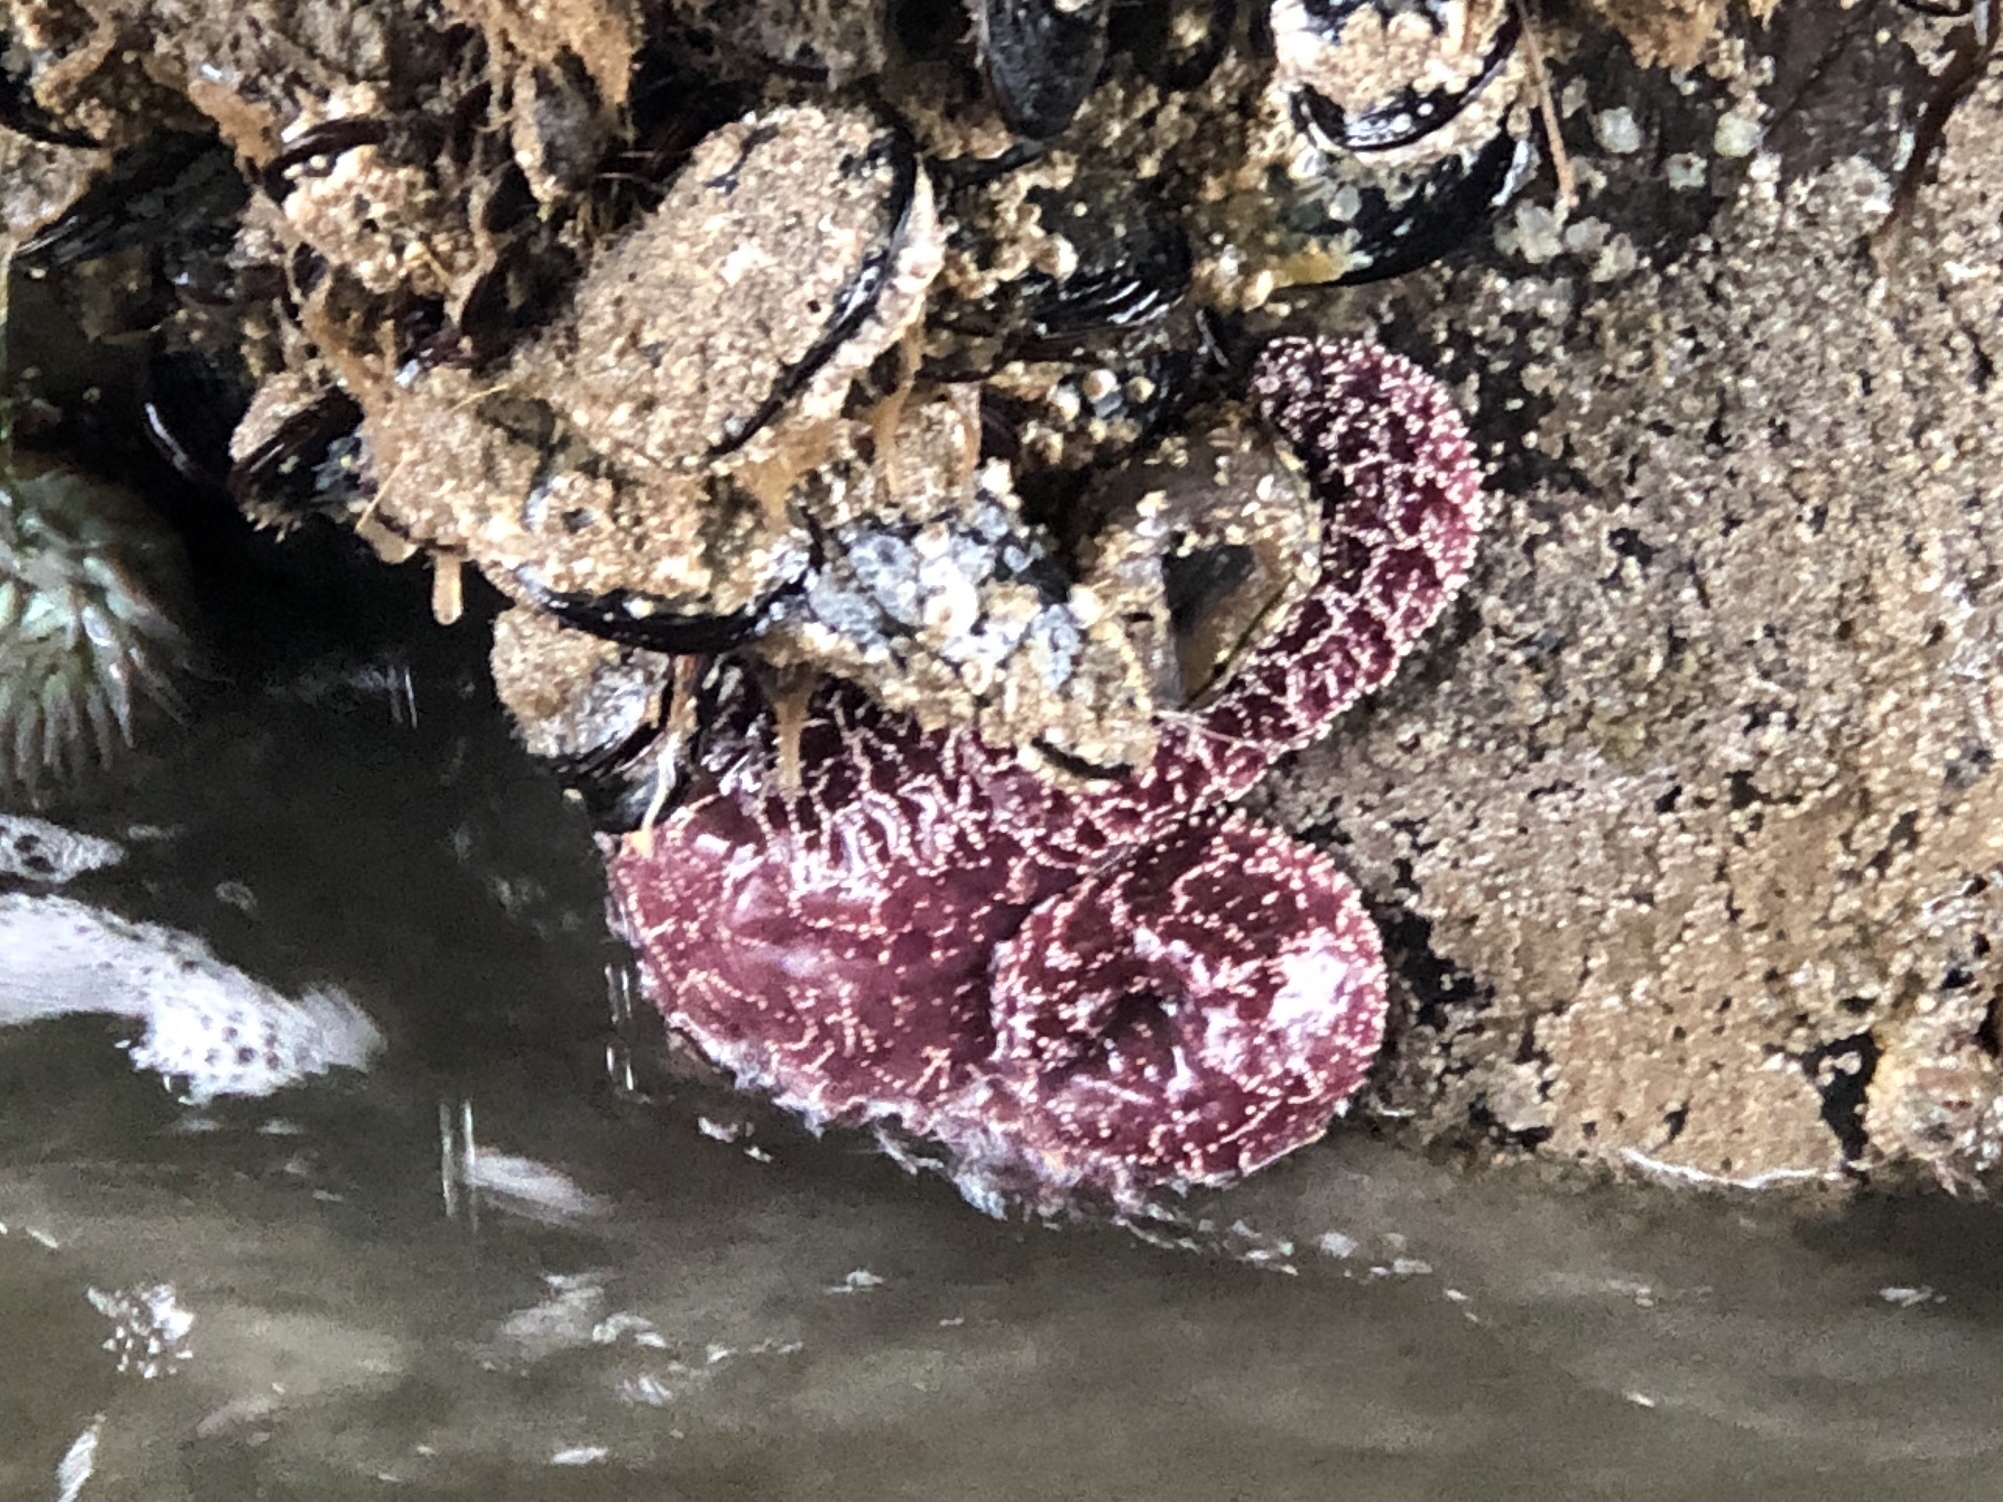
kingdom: Animalia
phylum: Echinodermata
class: Asteroidea
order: Forcipulatida
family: Asteriidae
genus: Pisaster
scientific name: Pisaster ochraceus
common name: Ochre stars
